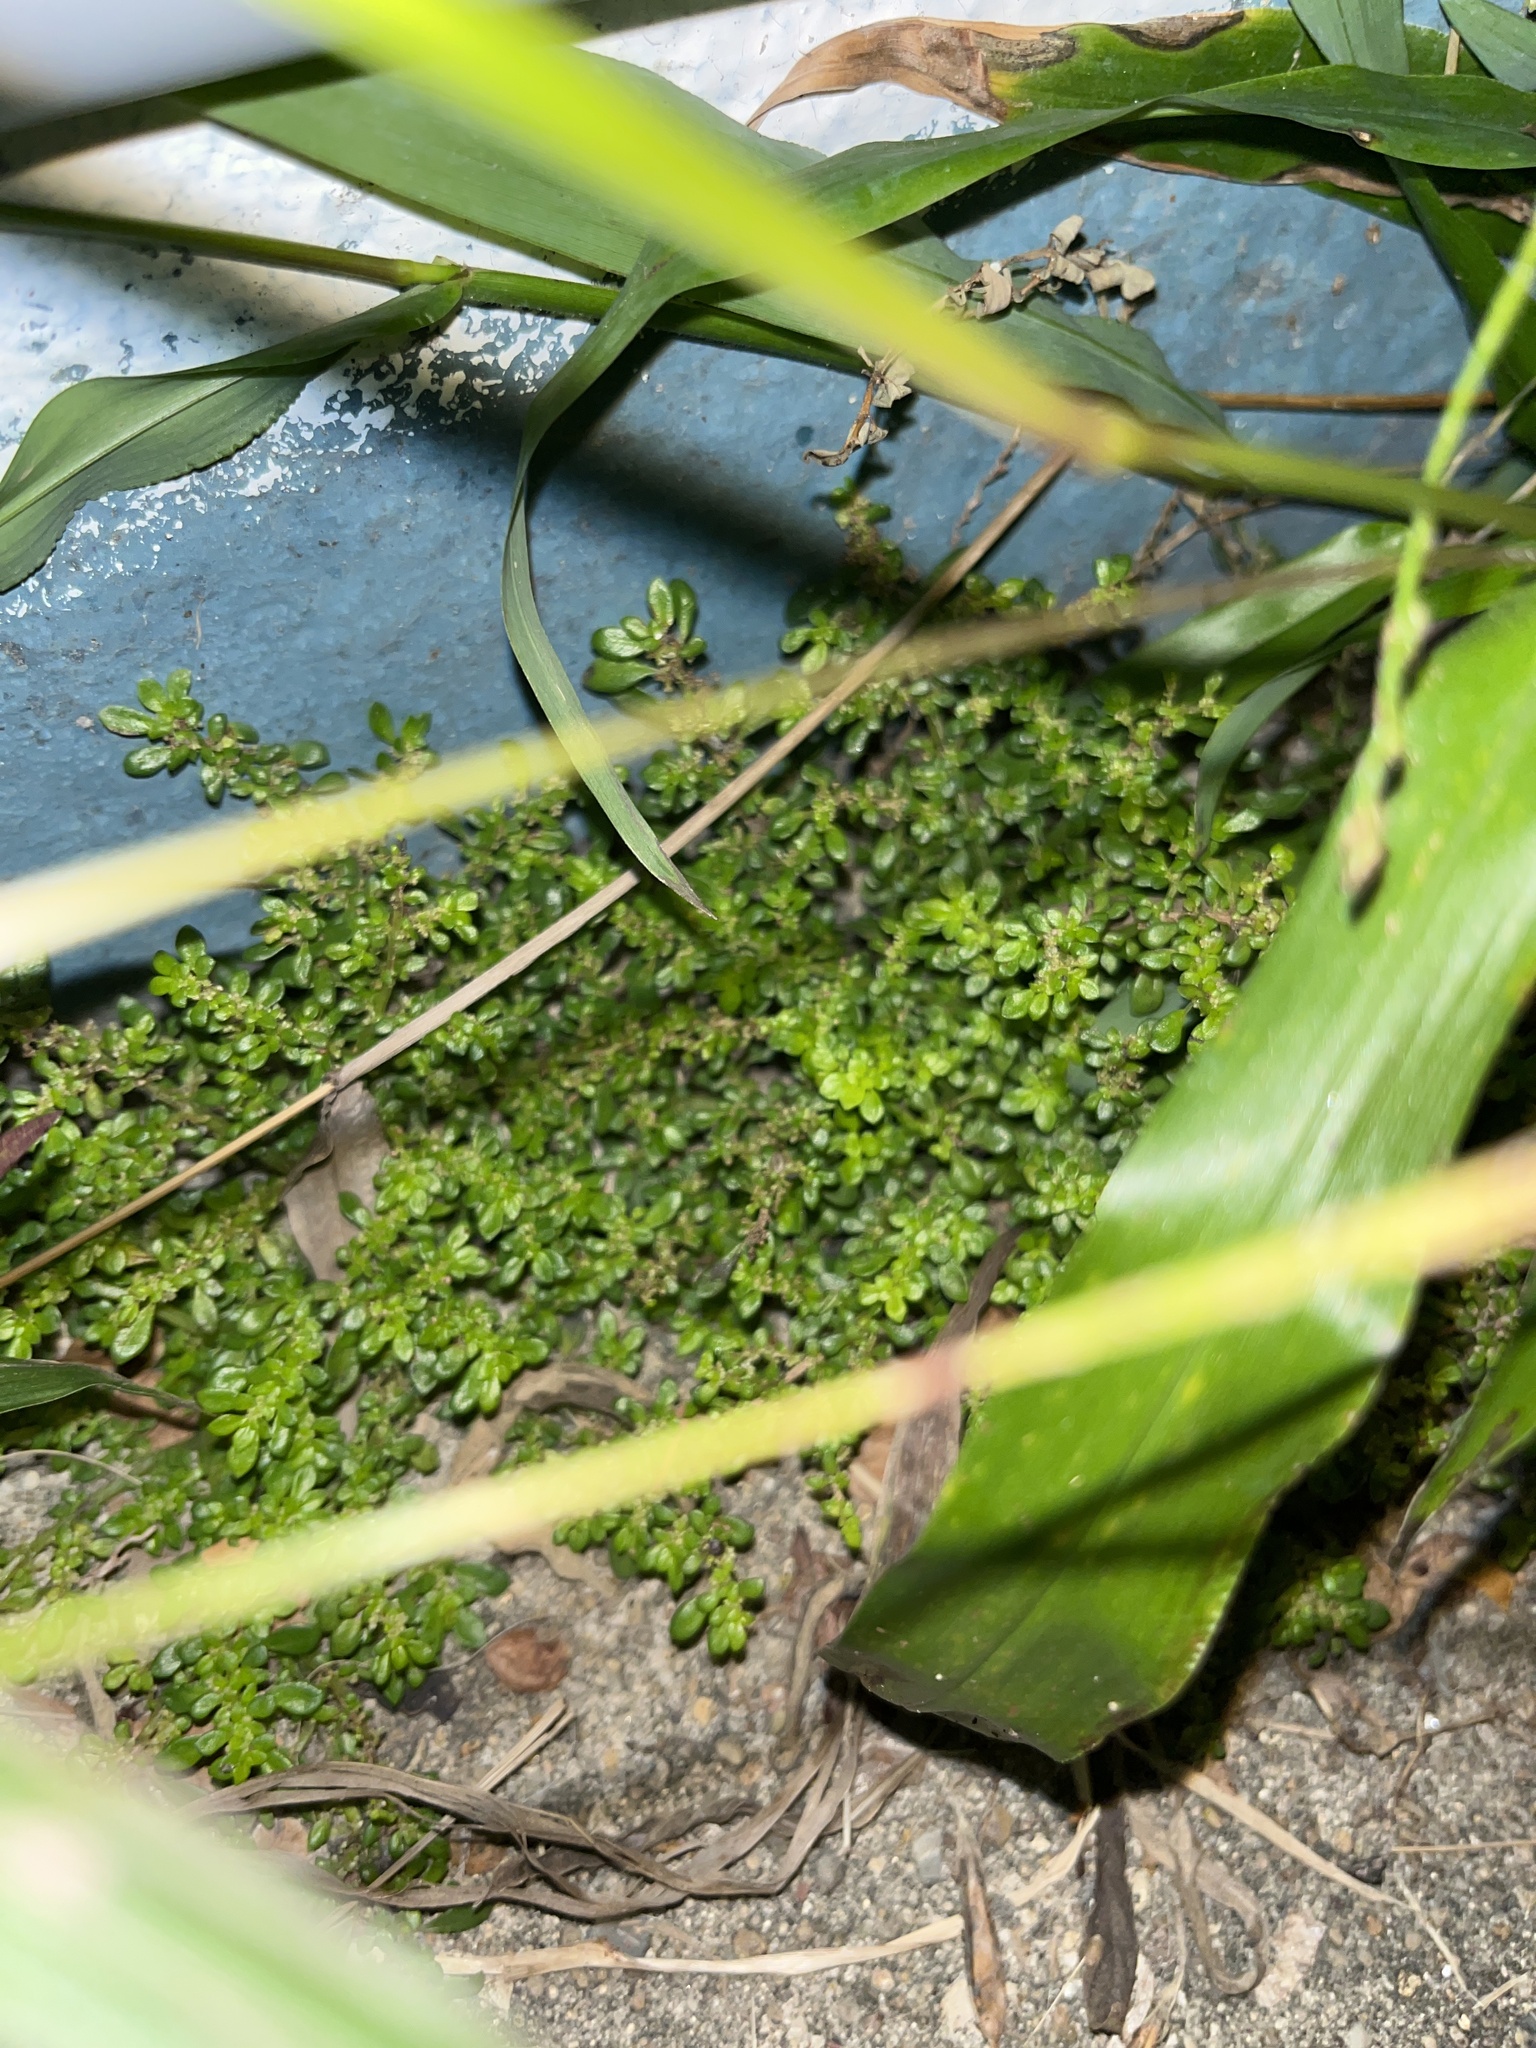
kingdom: Plantae
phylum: Tracheophyta
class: Magnoliopsida
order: Rosales
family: Urticaceae
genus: Pilea
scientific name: Pilea microphylla
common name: Artillery-plant
